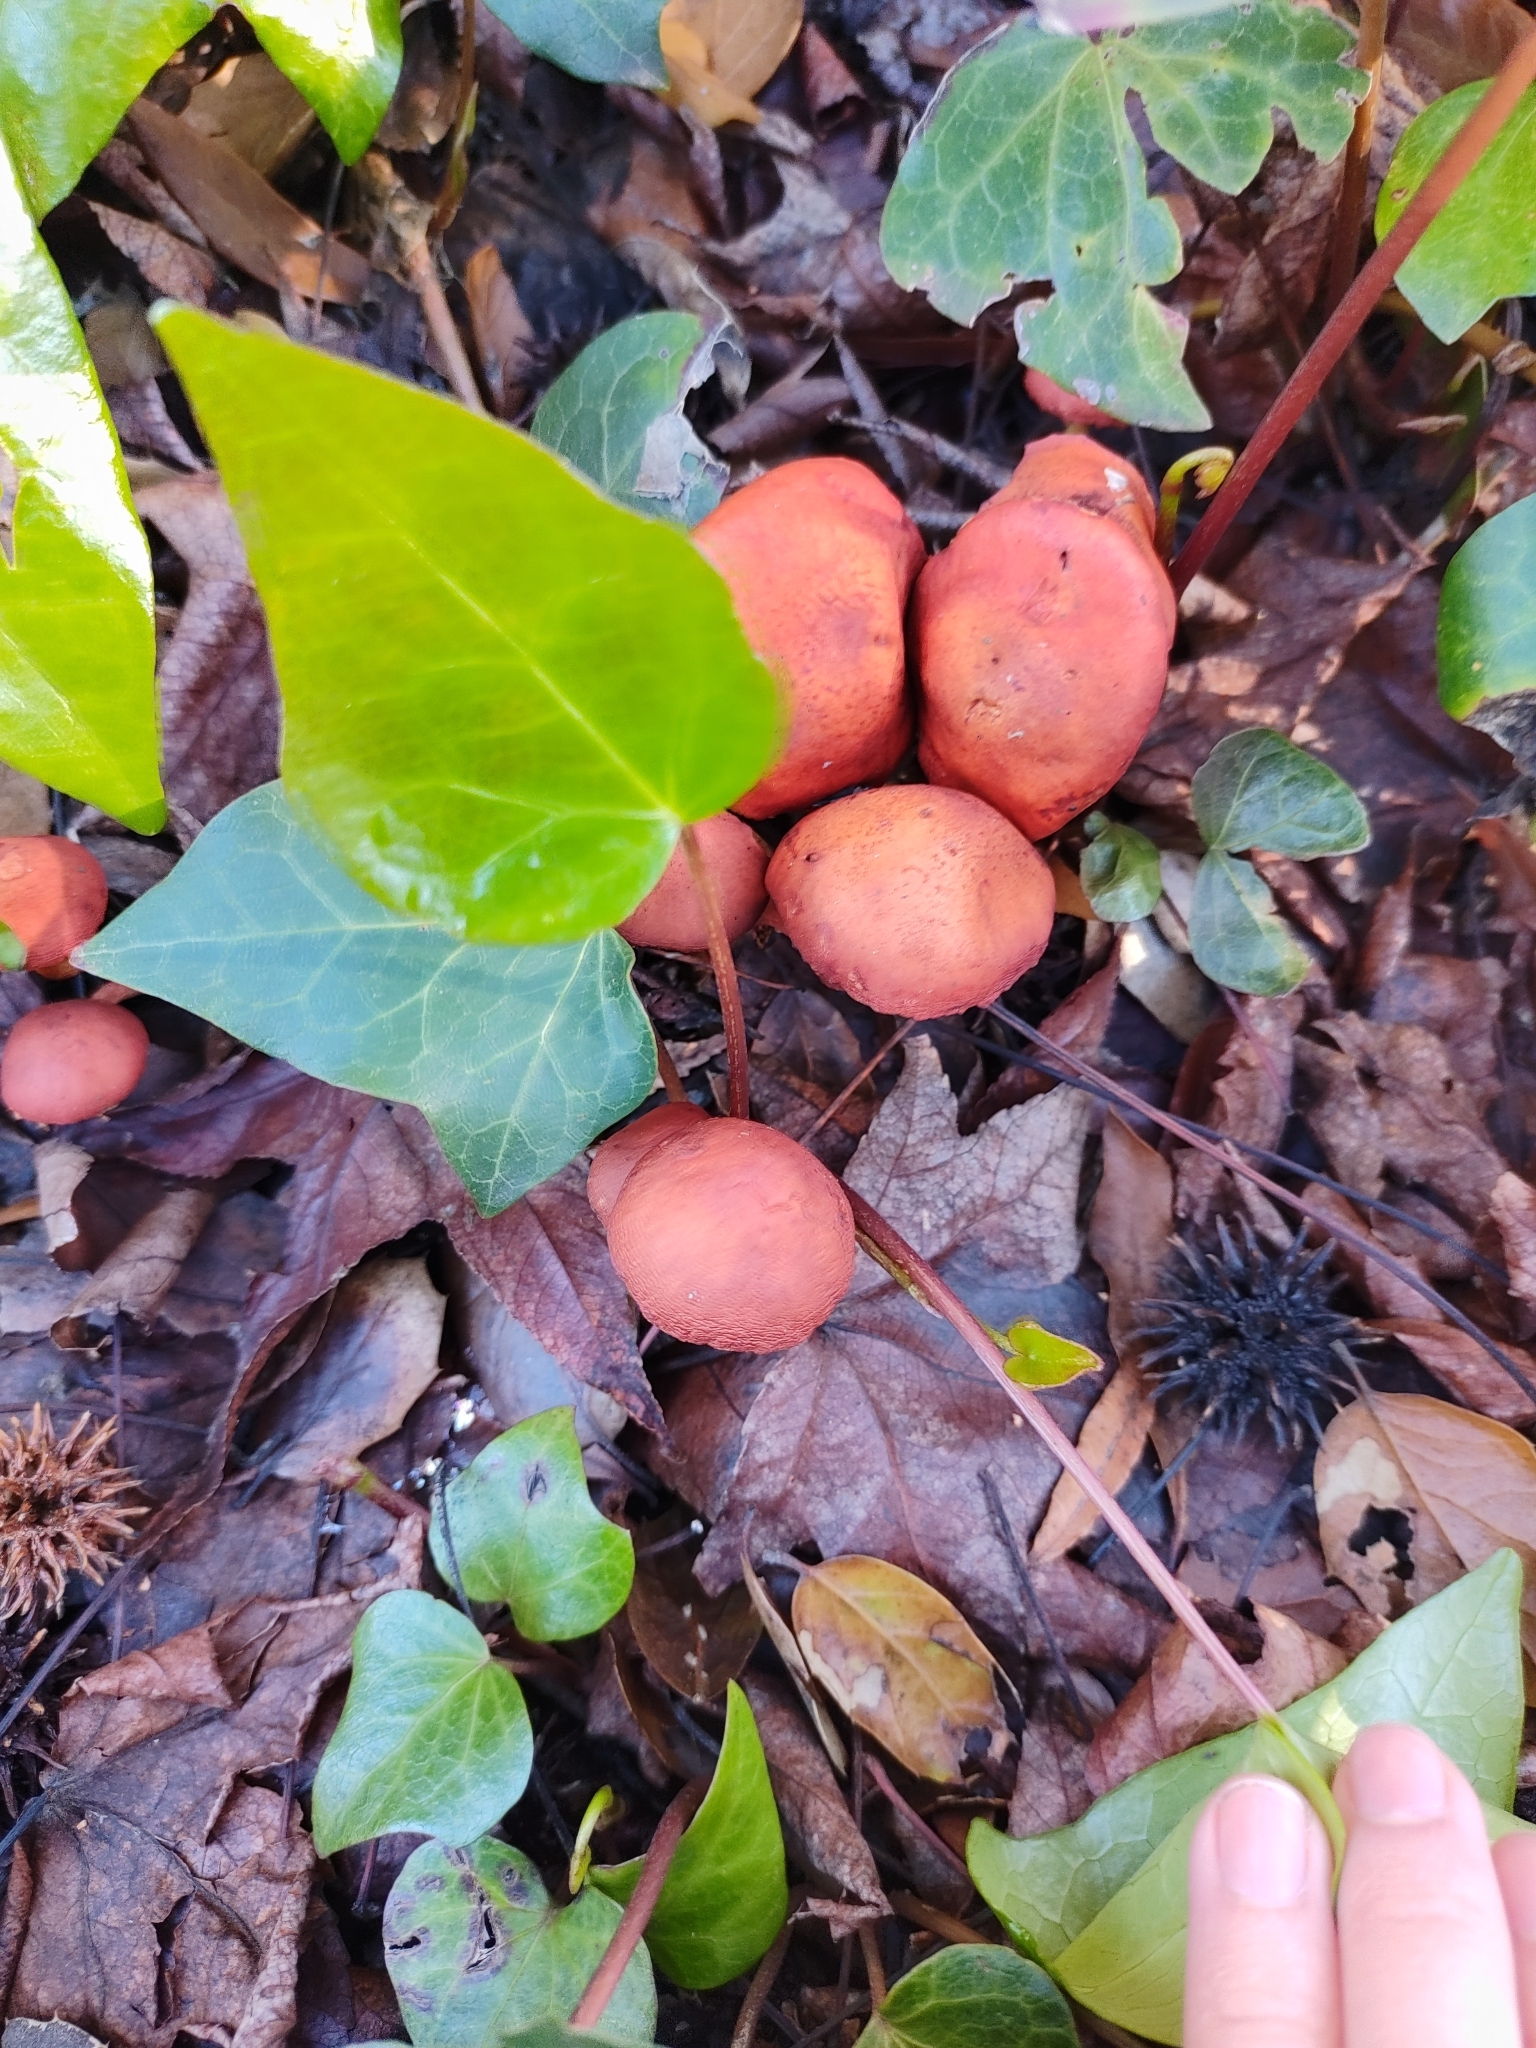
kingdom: Fungi
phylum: Basidiomycota
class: Agaricomycetes
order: Agaricales
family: Strophariaceae
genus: Leratiomyces
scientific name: Leratiomyces ceres
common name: Redlead roundhead
